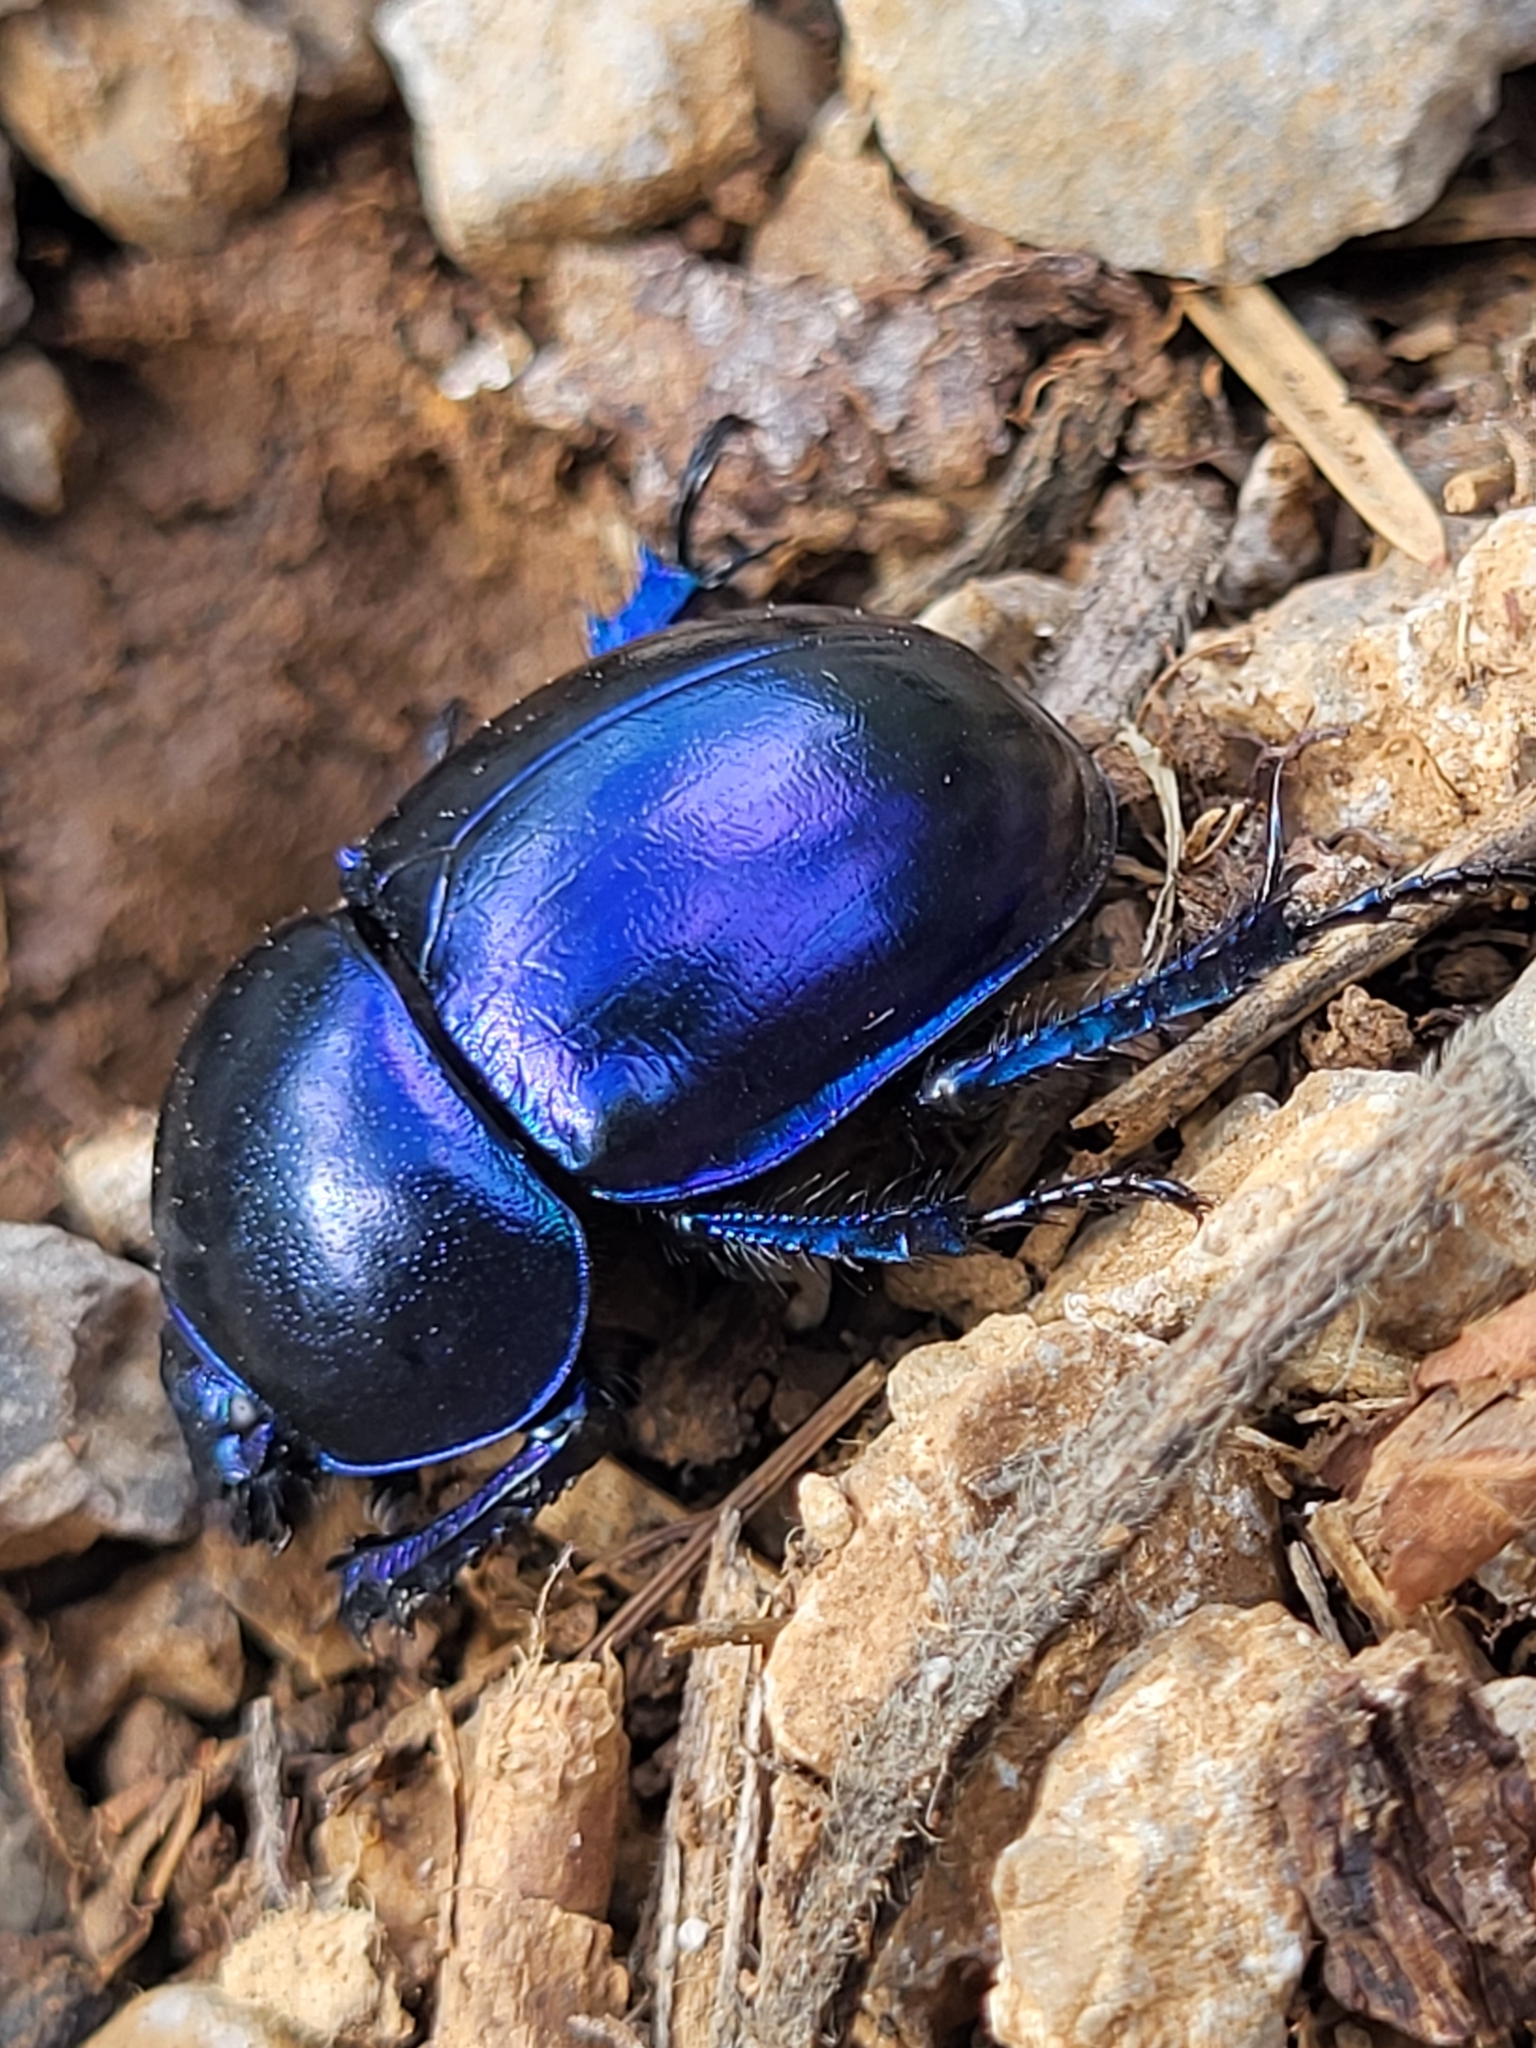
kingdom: Animalia
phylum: Arthropoda
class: Insecta
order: Coleoptera
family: Geotrupidae
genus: Trypocopris
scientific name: Trypocopris vernalis
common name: Spring dumbledor
